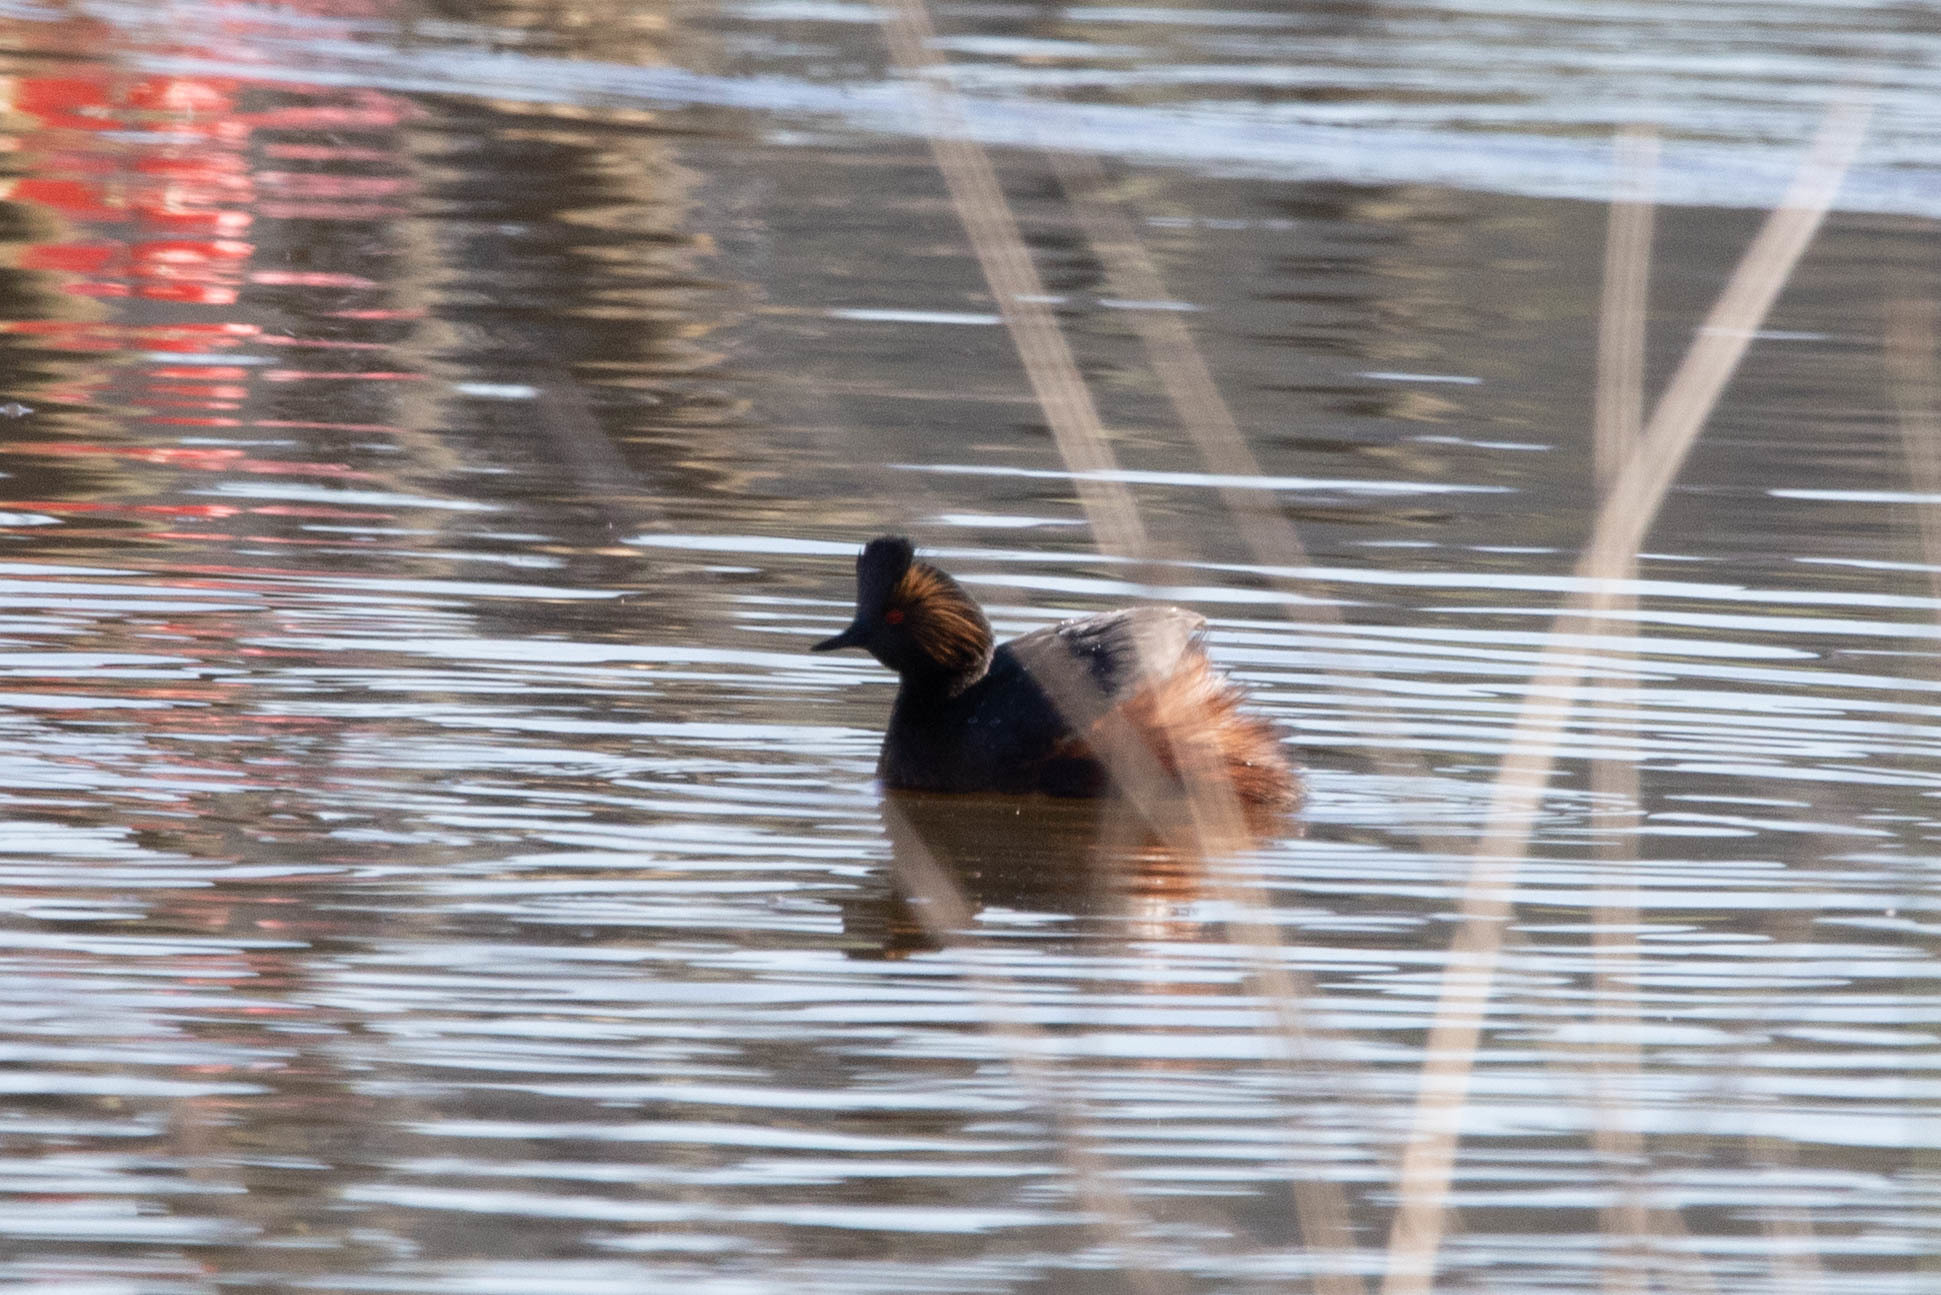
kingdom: Animalia
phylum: Chordata
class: Aves
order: Podicipediformes
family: Podicipedidae
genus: Podiceps
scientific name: Podiceps nigricollis
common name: Black-necked grebe
